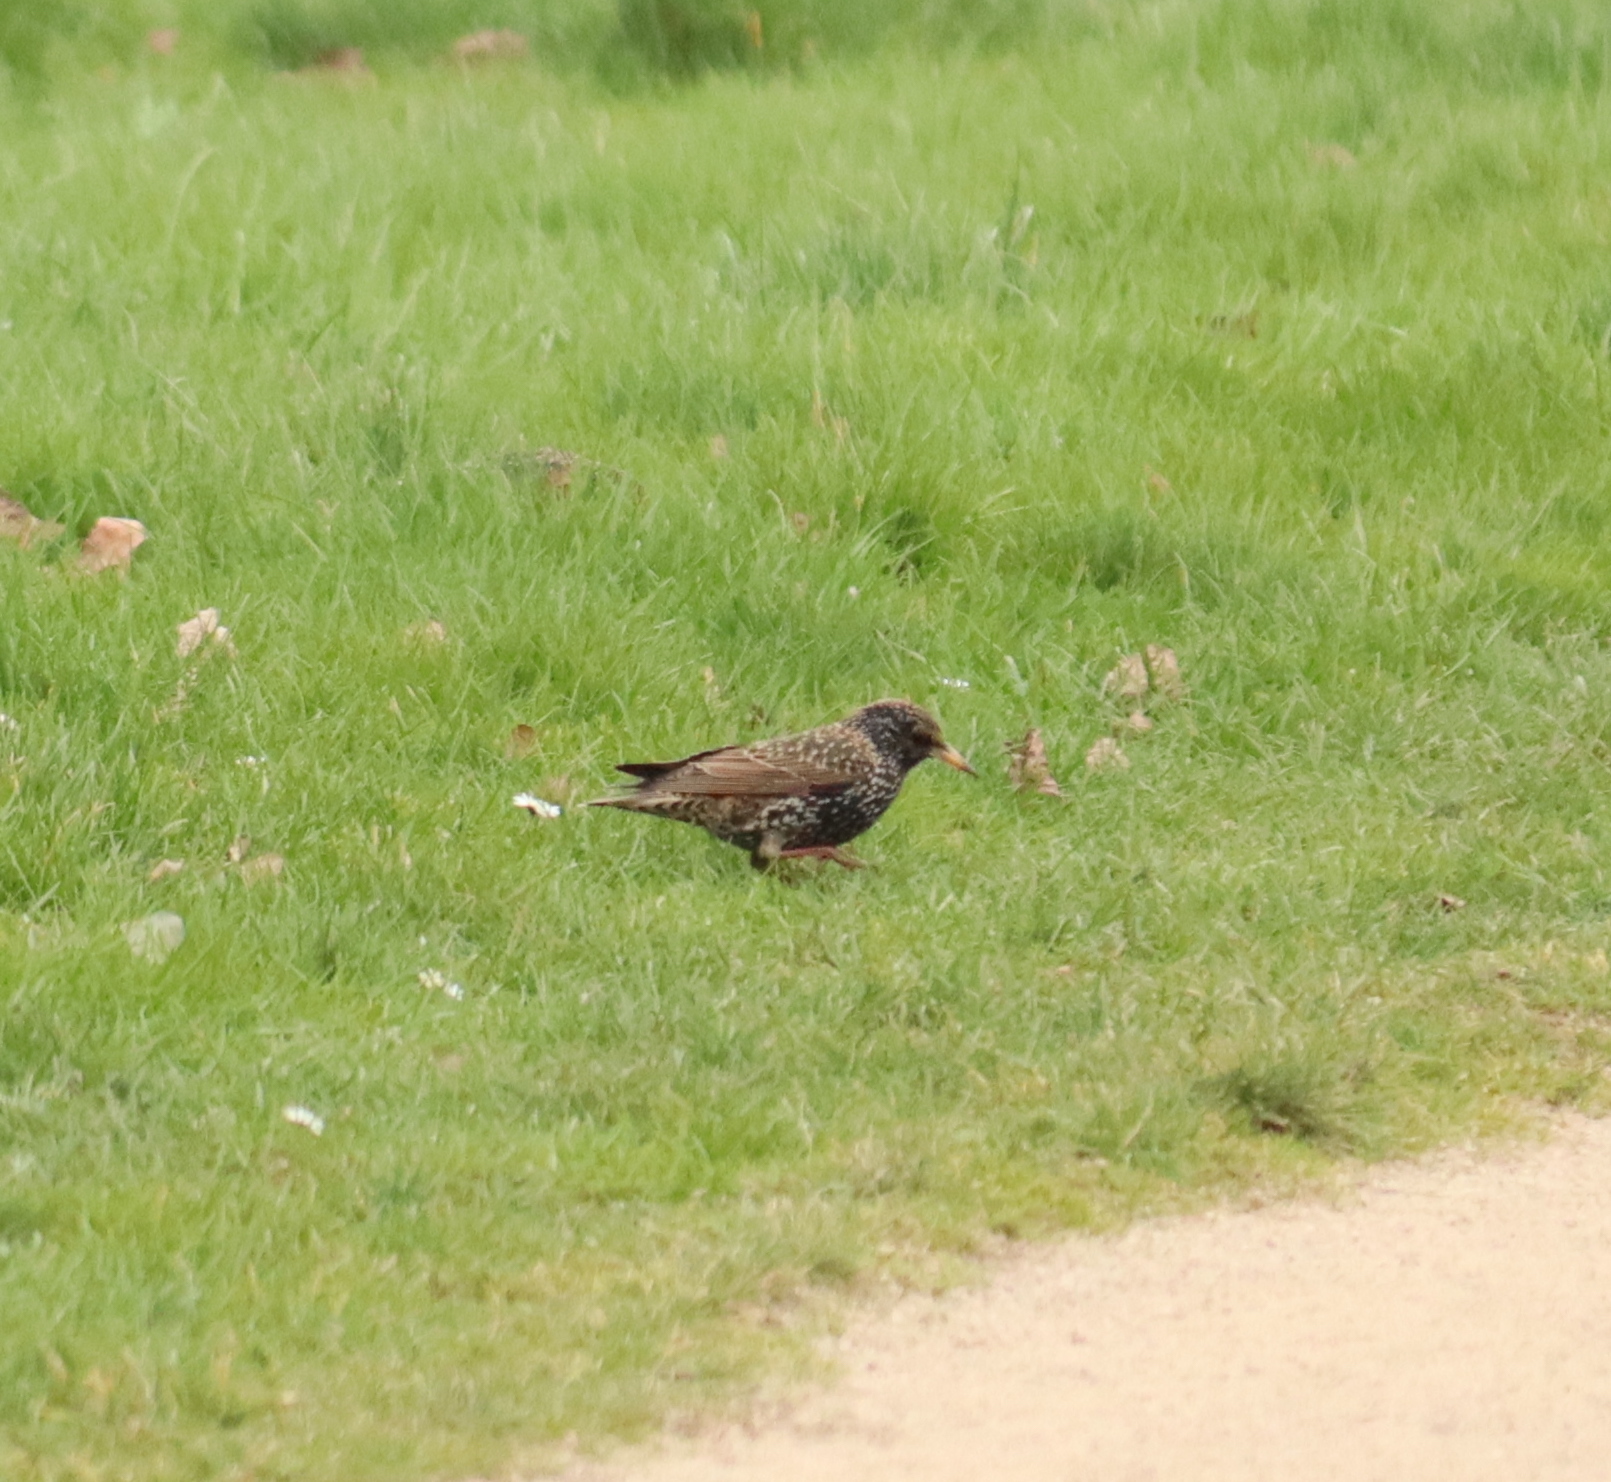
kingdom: Animalia
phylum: Chordata
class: Aves
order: Passeriformes
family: Sturnidae
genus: Sturnus
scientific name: Sturnus vulgaris
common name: Common starling
